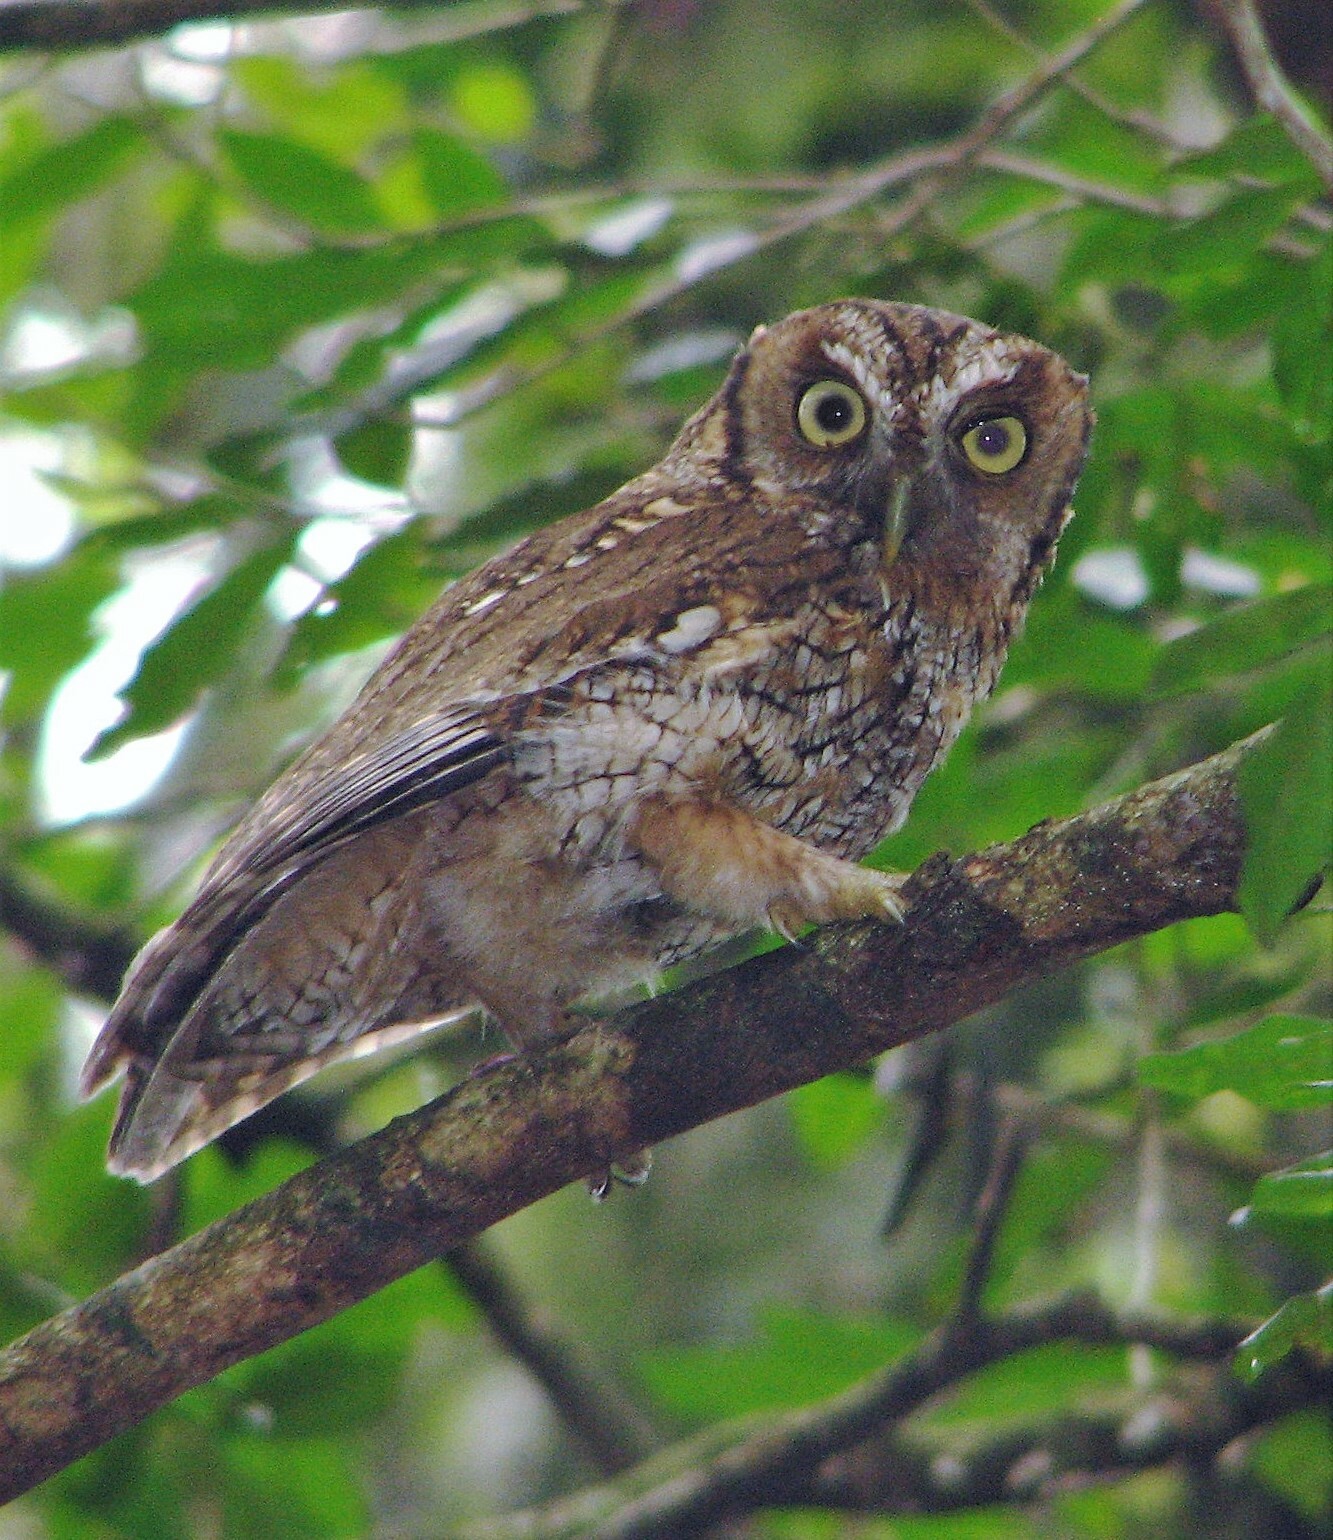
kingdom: Animalia
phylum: Chordata
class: Aves
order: Strigiformes
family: Strigidae
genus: Megascops
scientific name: Megascops choliba
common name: Tropical screech-owl
